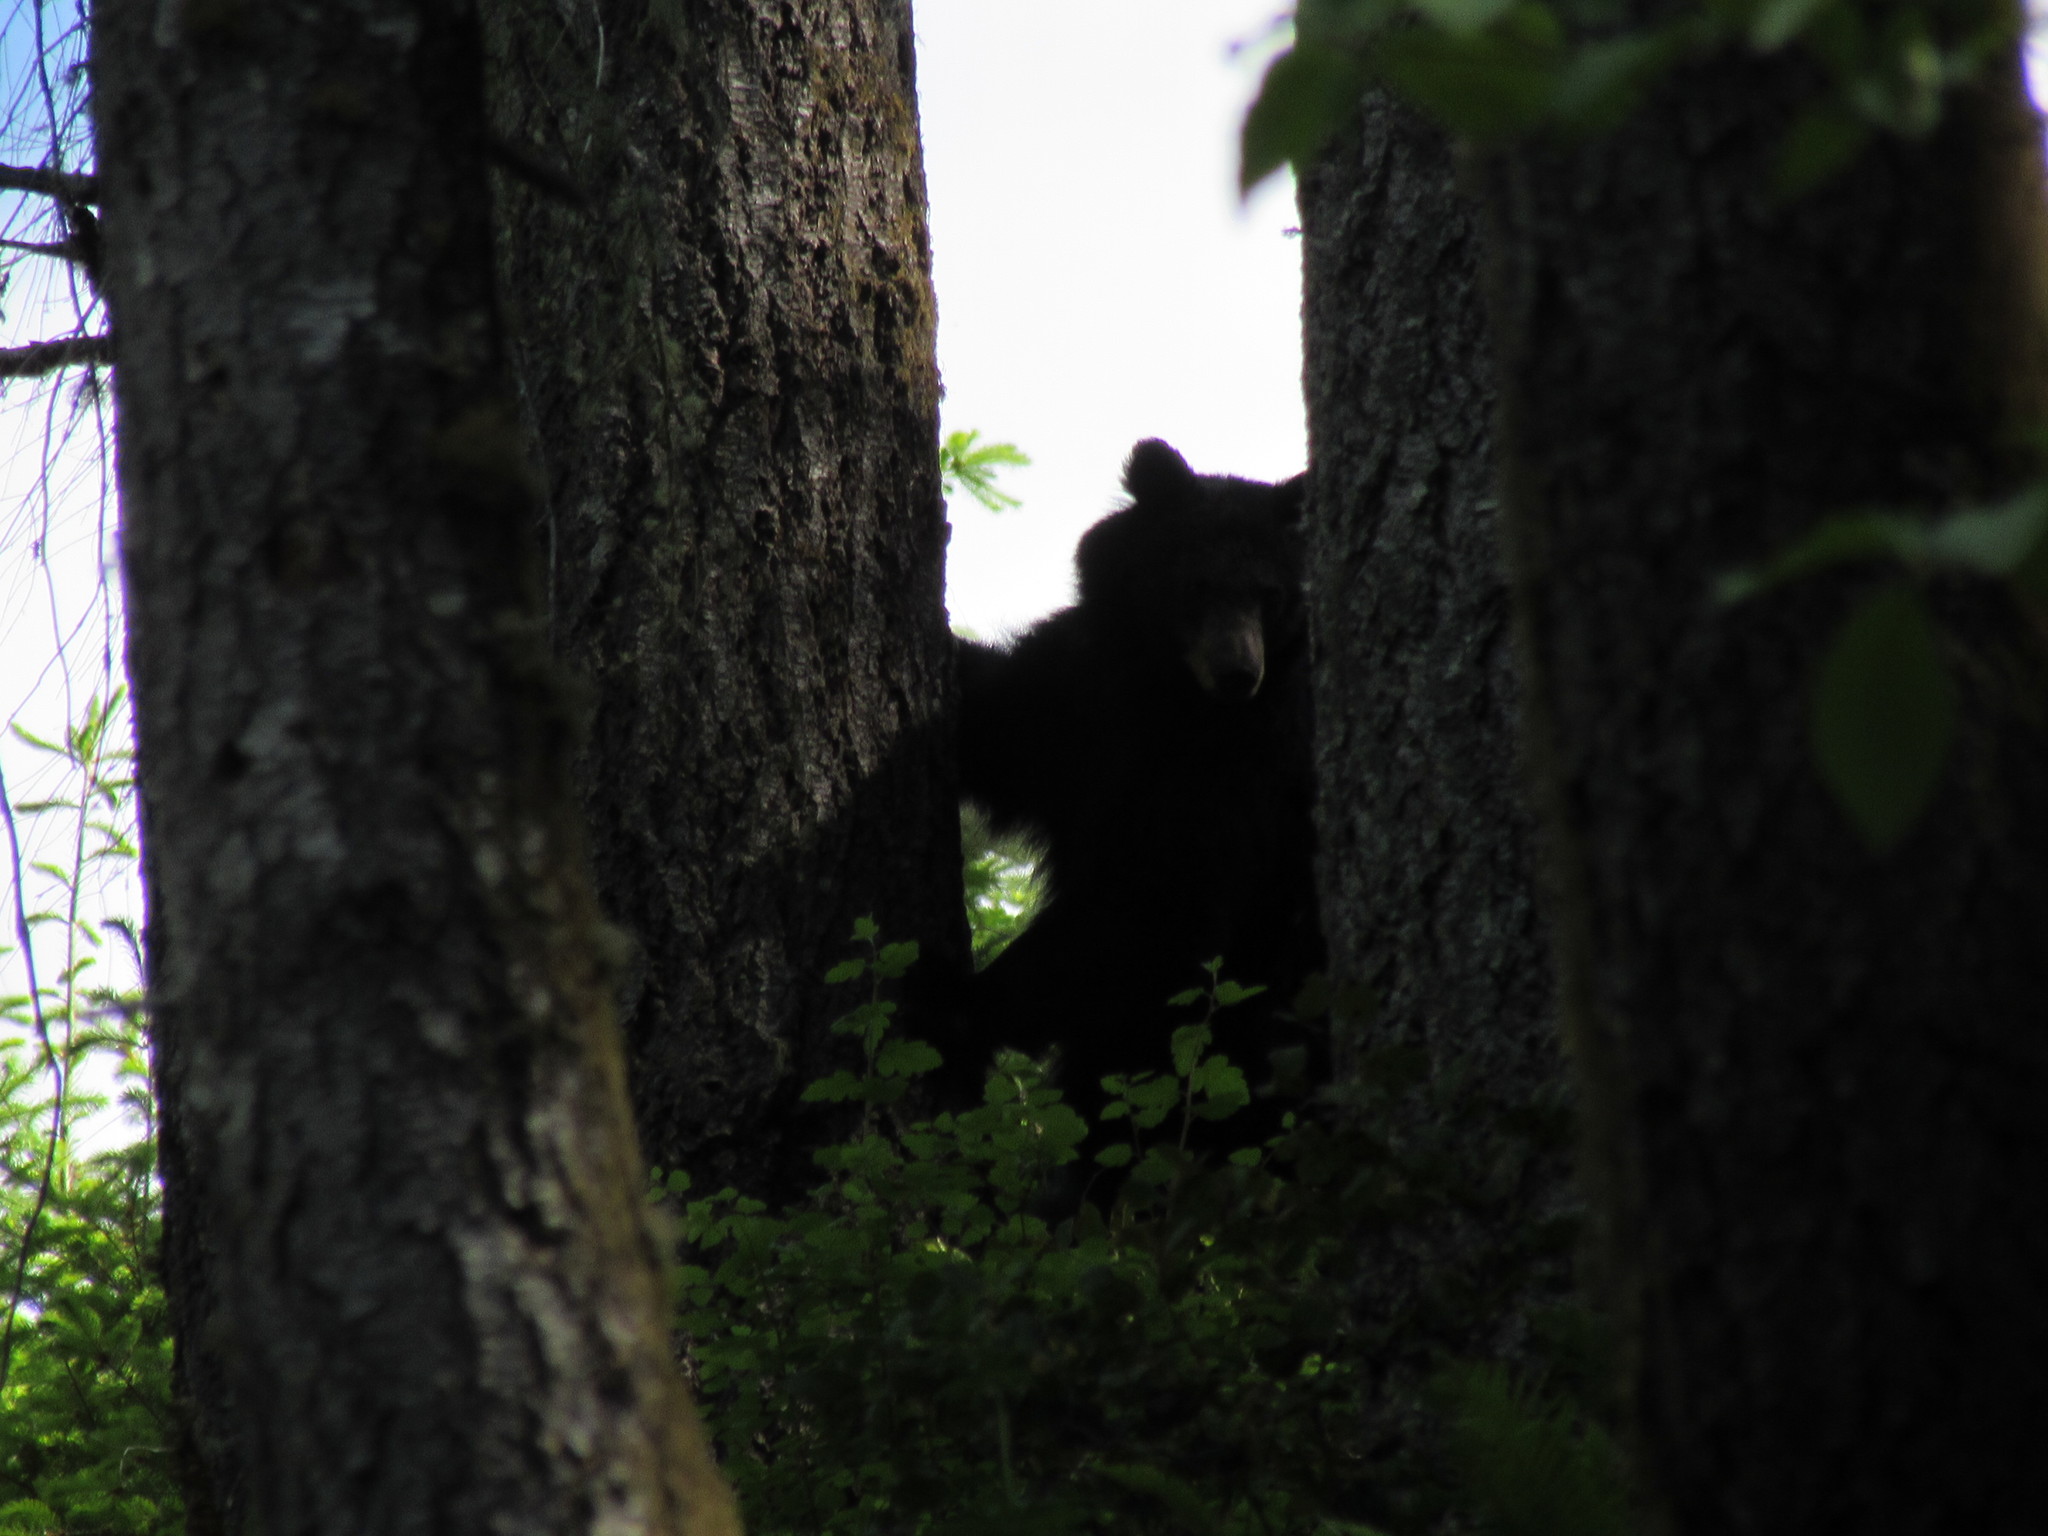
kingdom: Animalia
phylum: Chordata
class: Mammalia
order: Carnivora
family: Ursidae
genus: Ursus
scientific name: Ursus americanus
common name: American black bear
